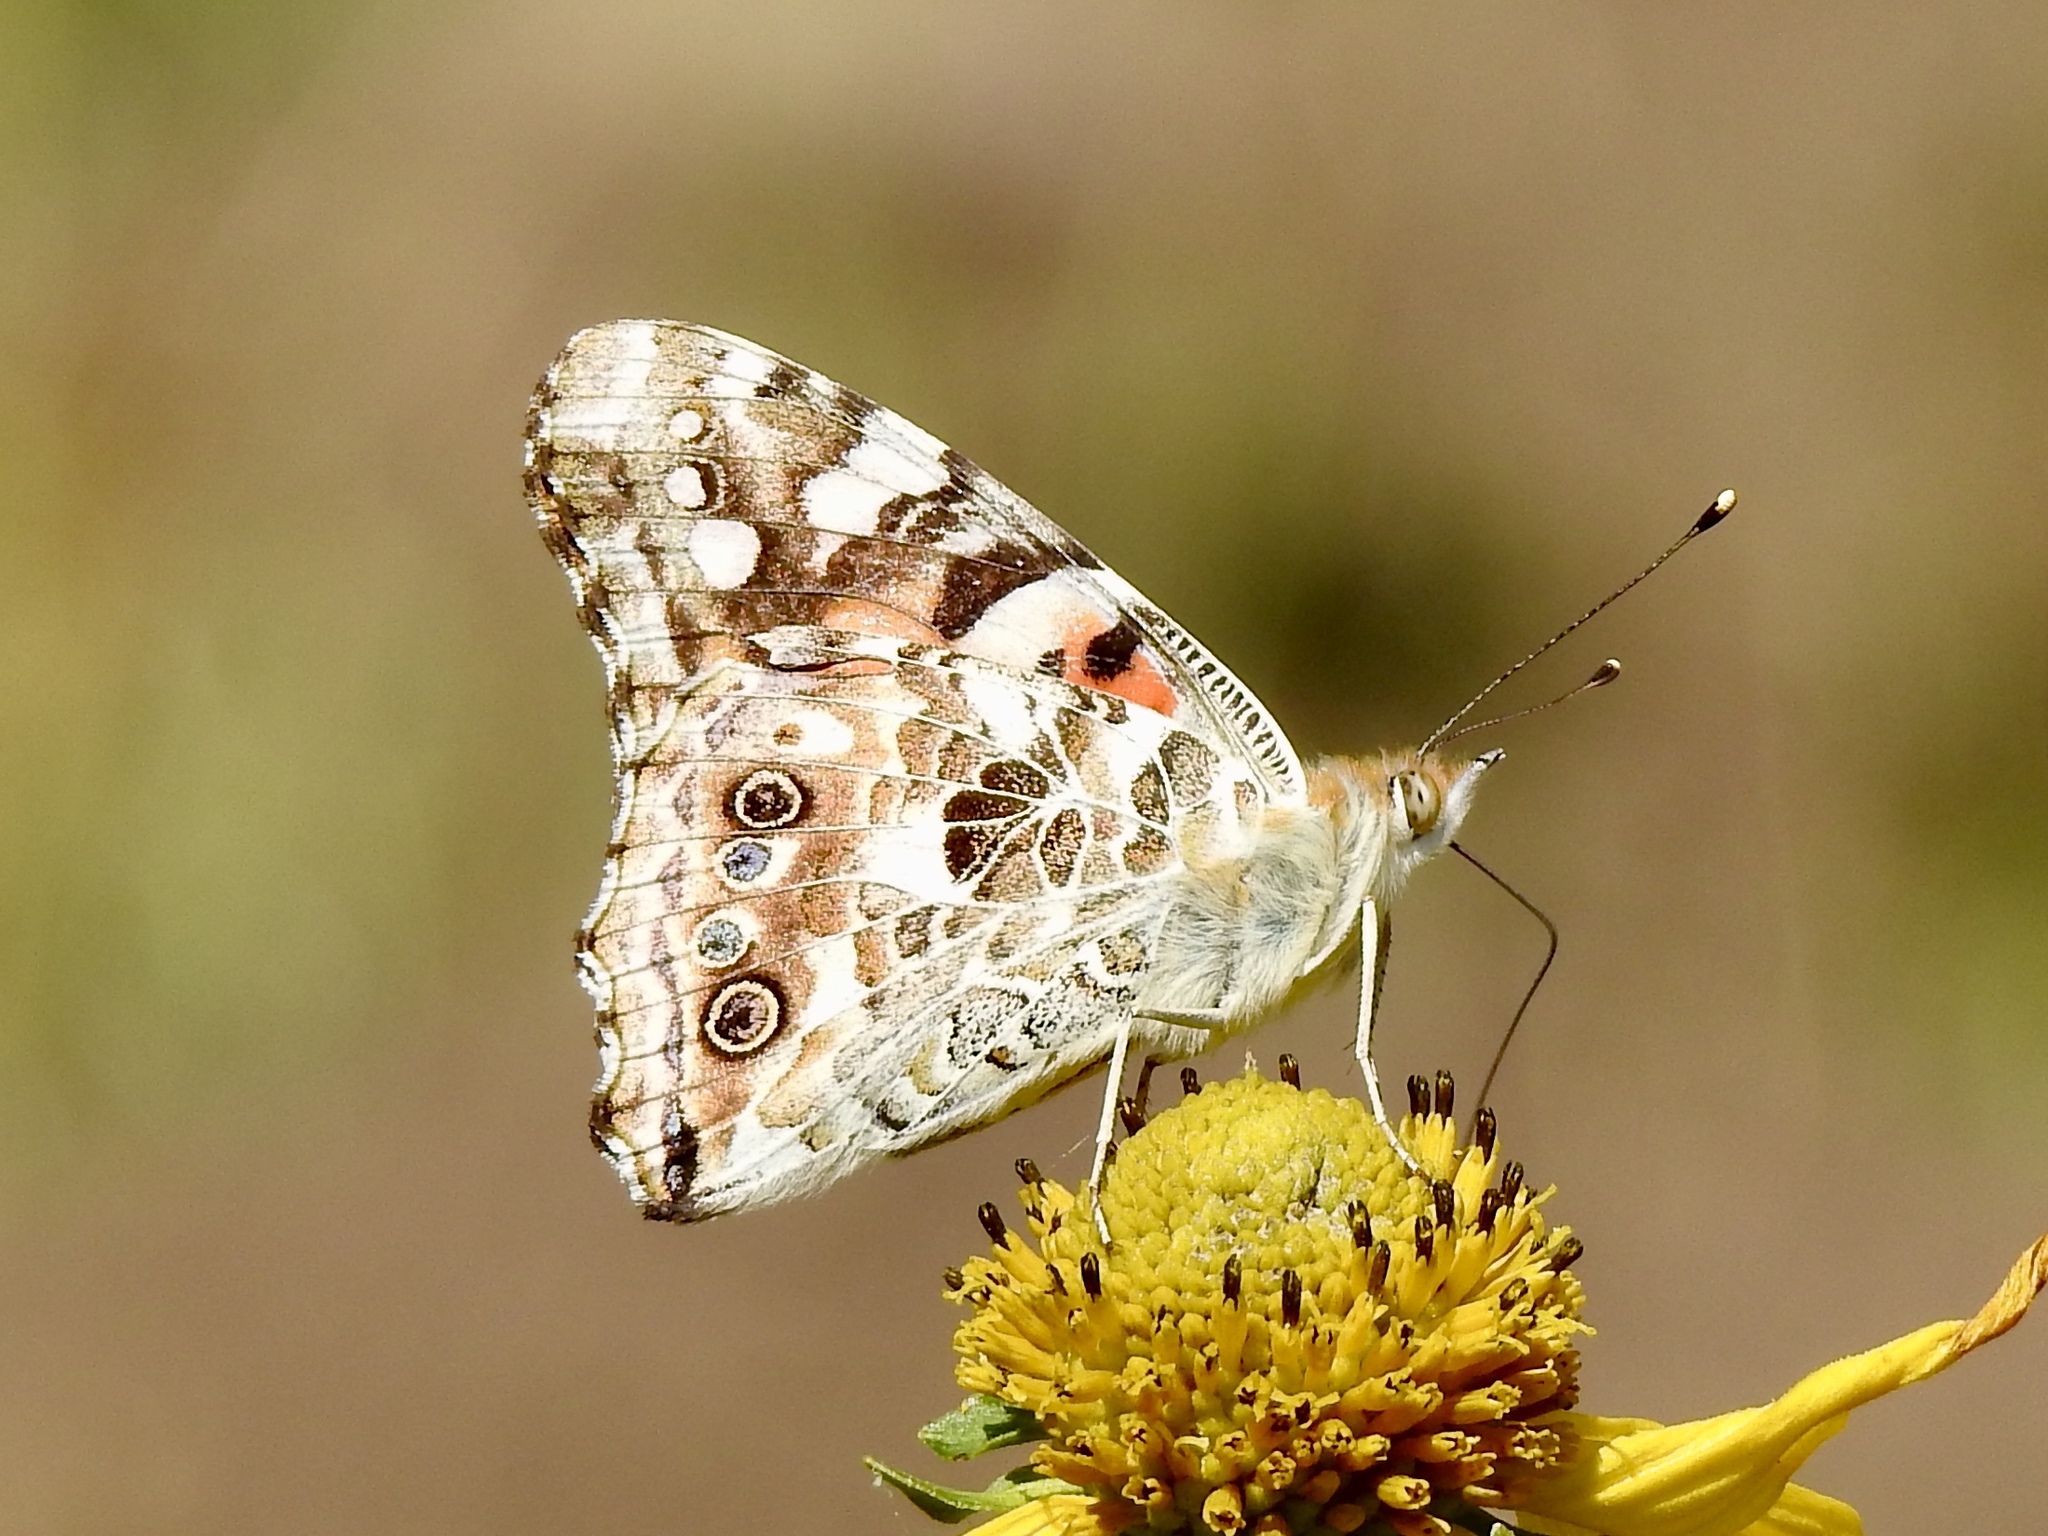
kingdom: Animalia
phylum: Arthropoda
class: Insecta
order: Lepidoptera
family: Nymphalidae
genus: Vanessa
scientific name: Vanessa cardui
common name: Painted lady
